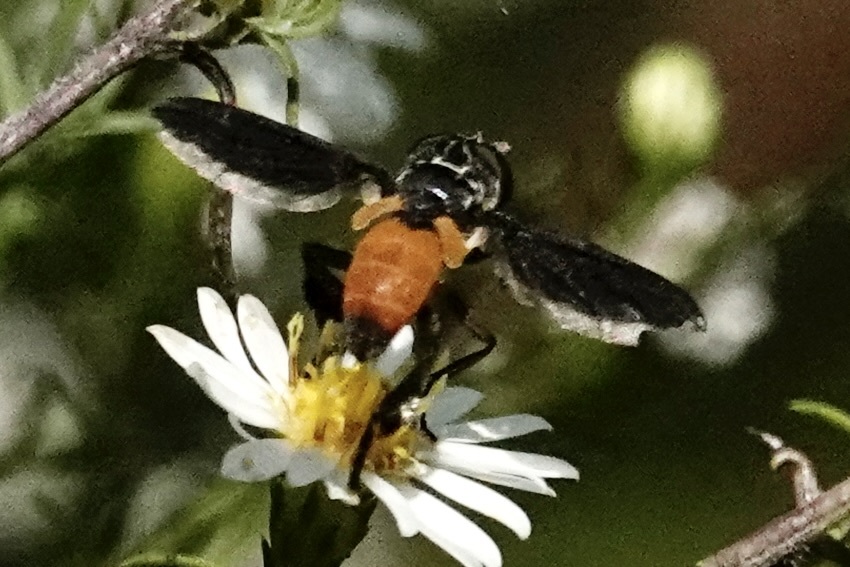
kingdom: Animalia
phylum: Arthropoda
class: Insecta
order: Diptera
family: Tachinidae
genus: Trichopoda
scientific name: Trichopoda pennipes
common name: Tachinid fly
